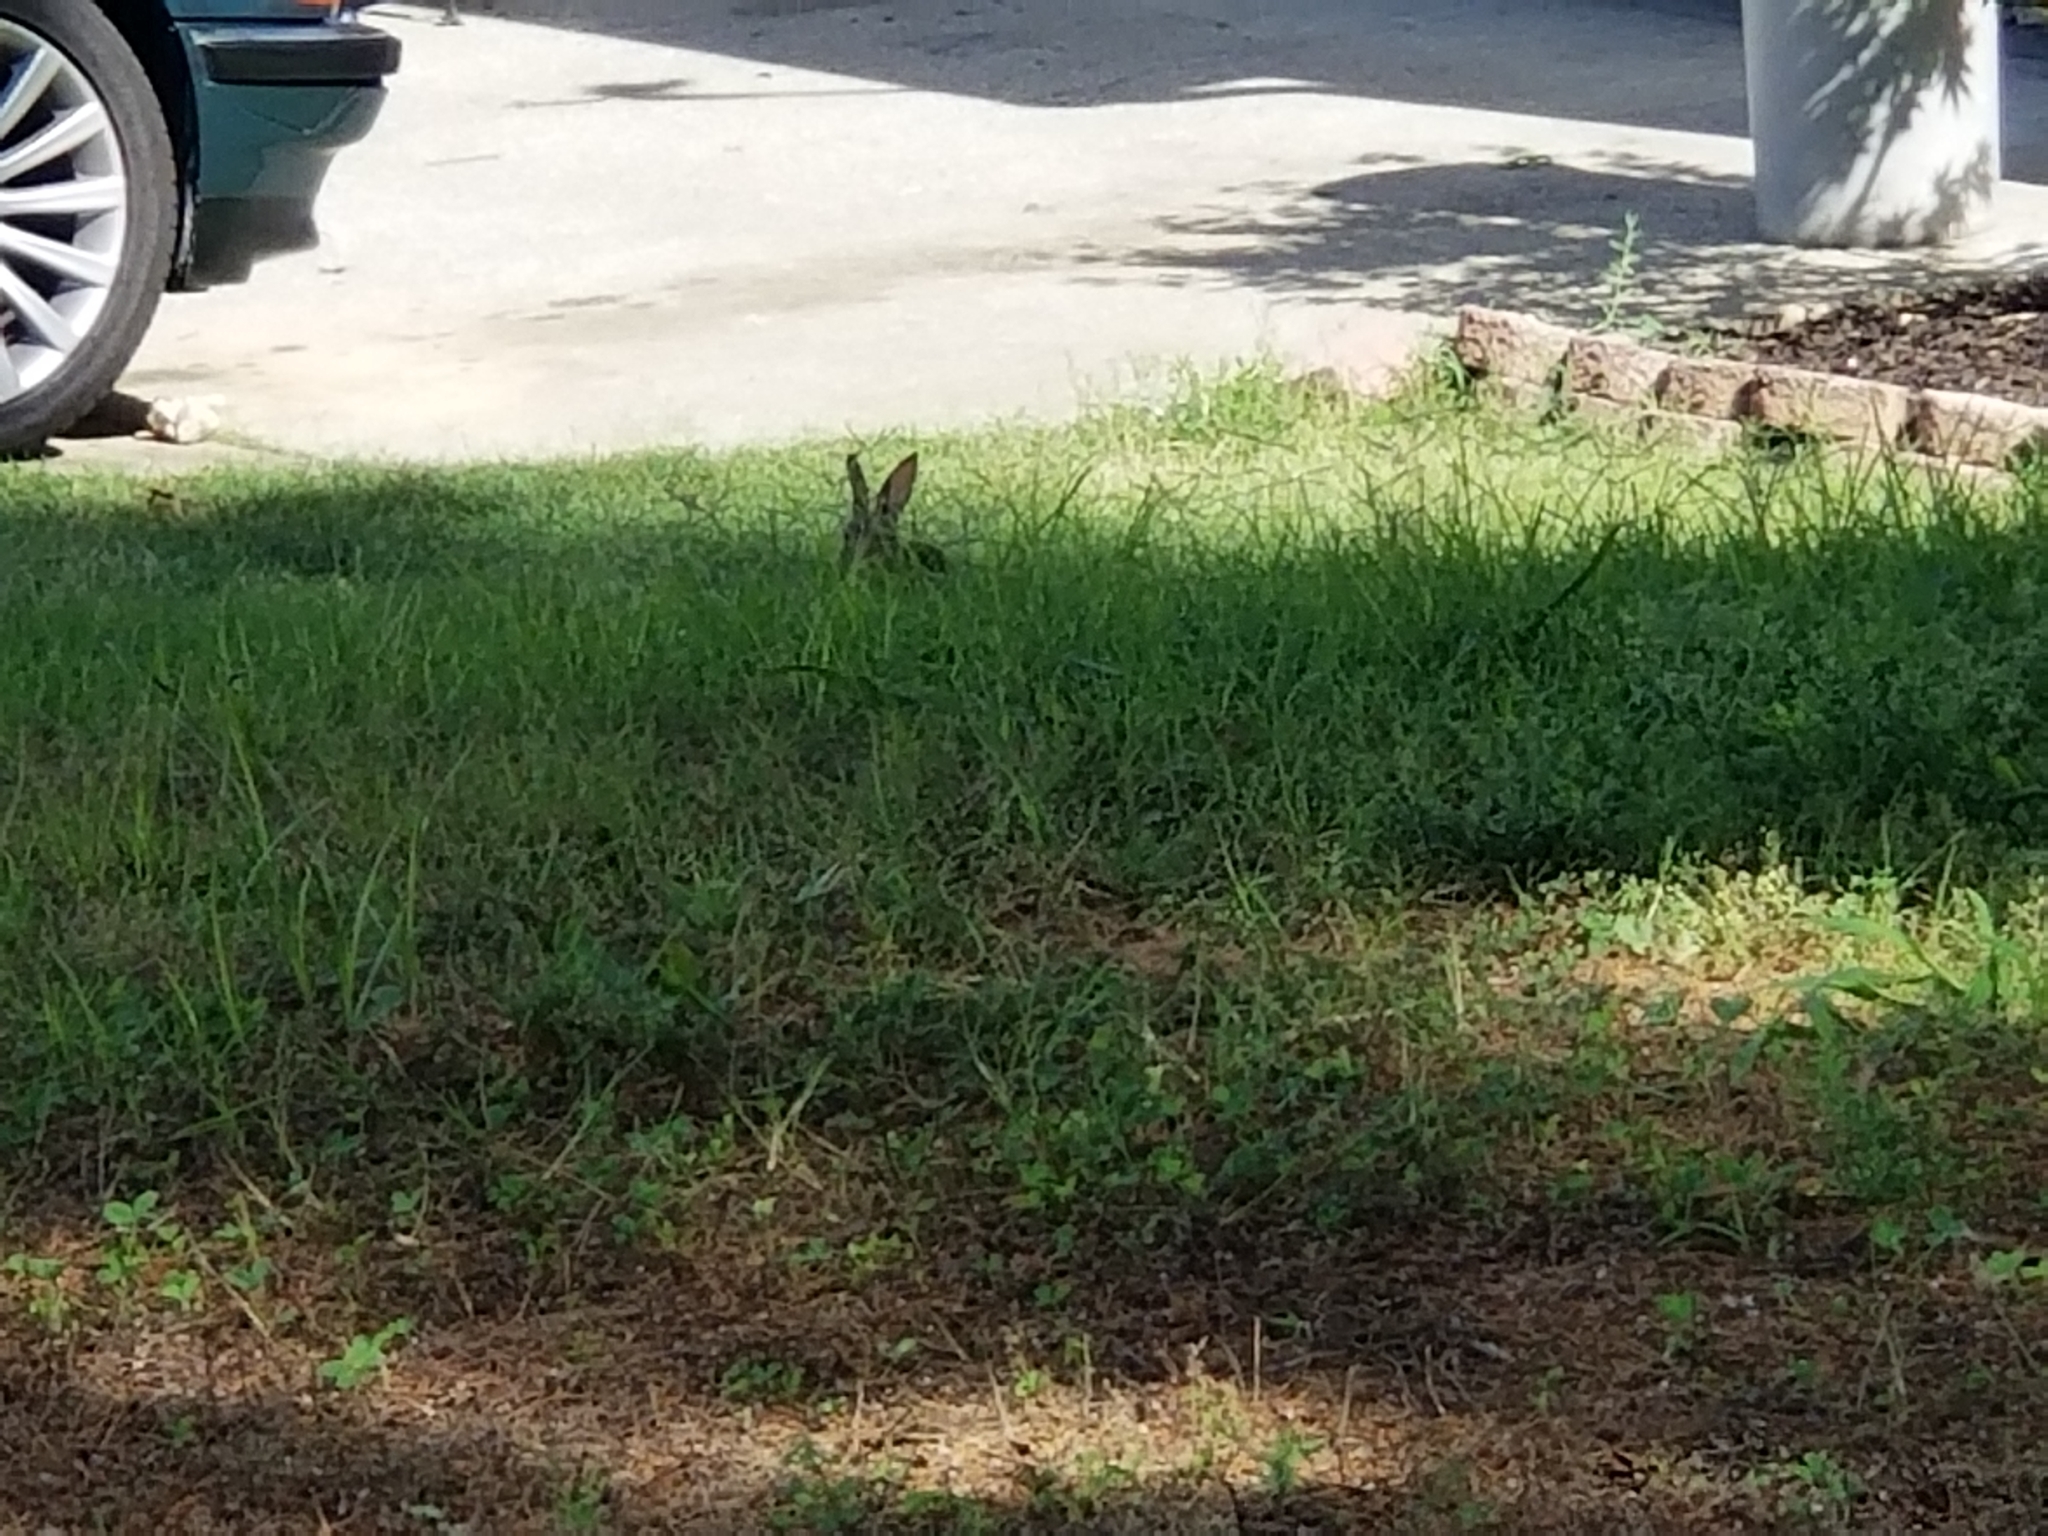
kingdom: Animalia
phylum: Chordata
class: Mammalia
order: Lagomorpha
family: Leporidae
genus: Sylvilagus
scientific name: Sylvilagus floridanus
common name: Eastern cottontail
